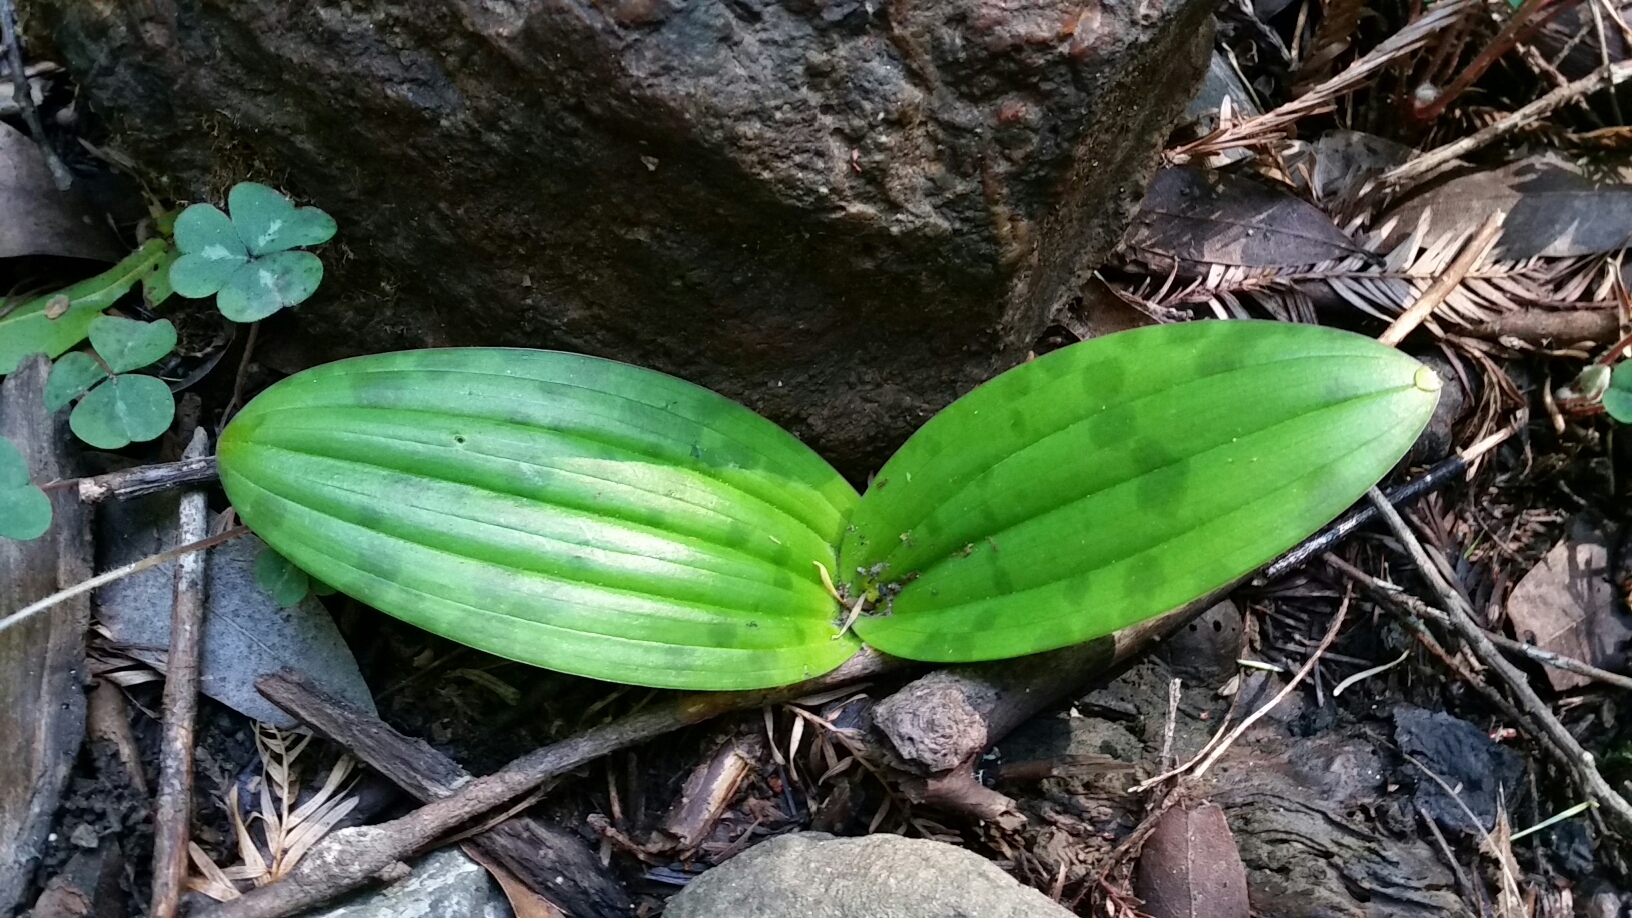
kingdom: Plantae
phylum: Tracheophyta
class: Liliopsida
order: Liliales
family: Liliaceae
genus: Scoliopus
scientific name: Scoliopus bigelovii
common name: Foetid adder's-tongue
